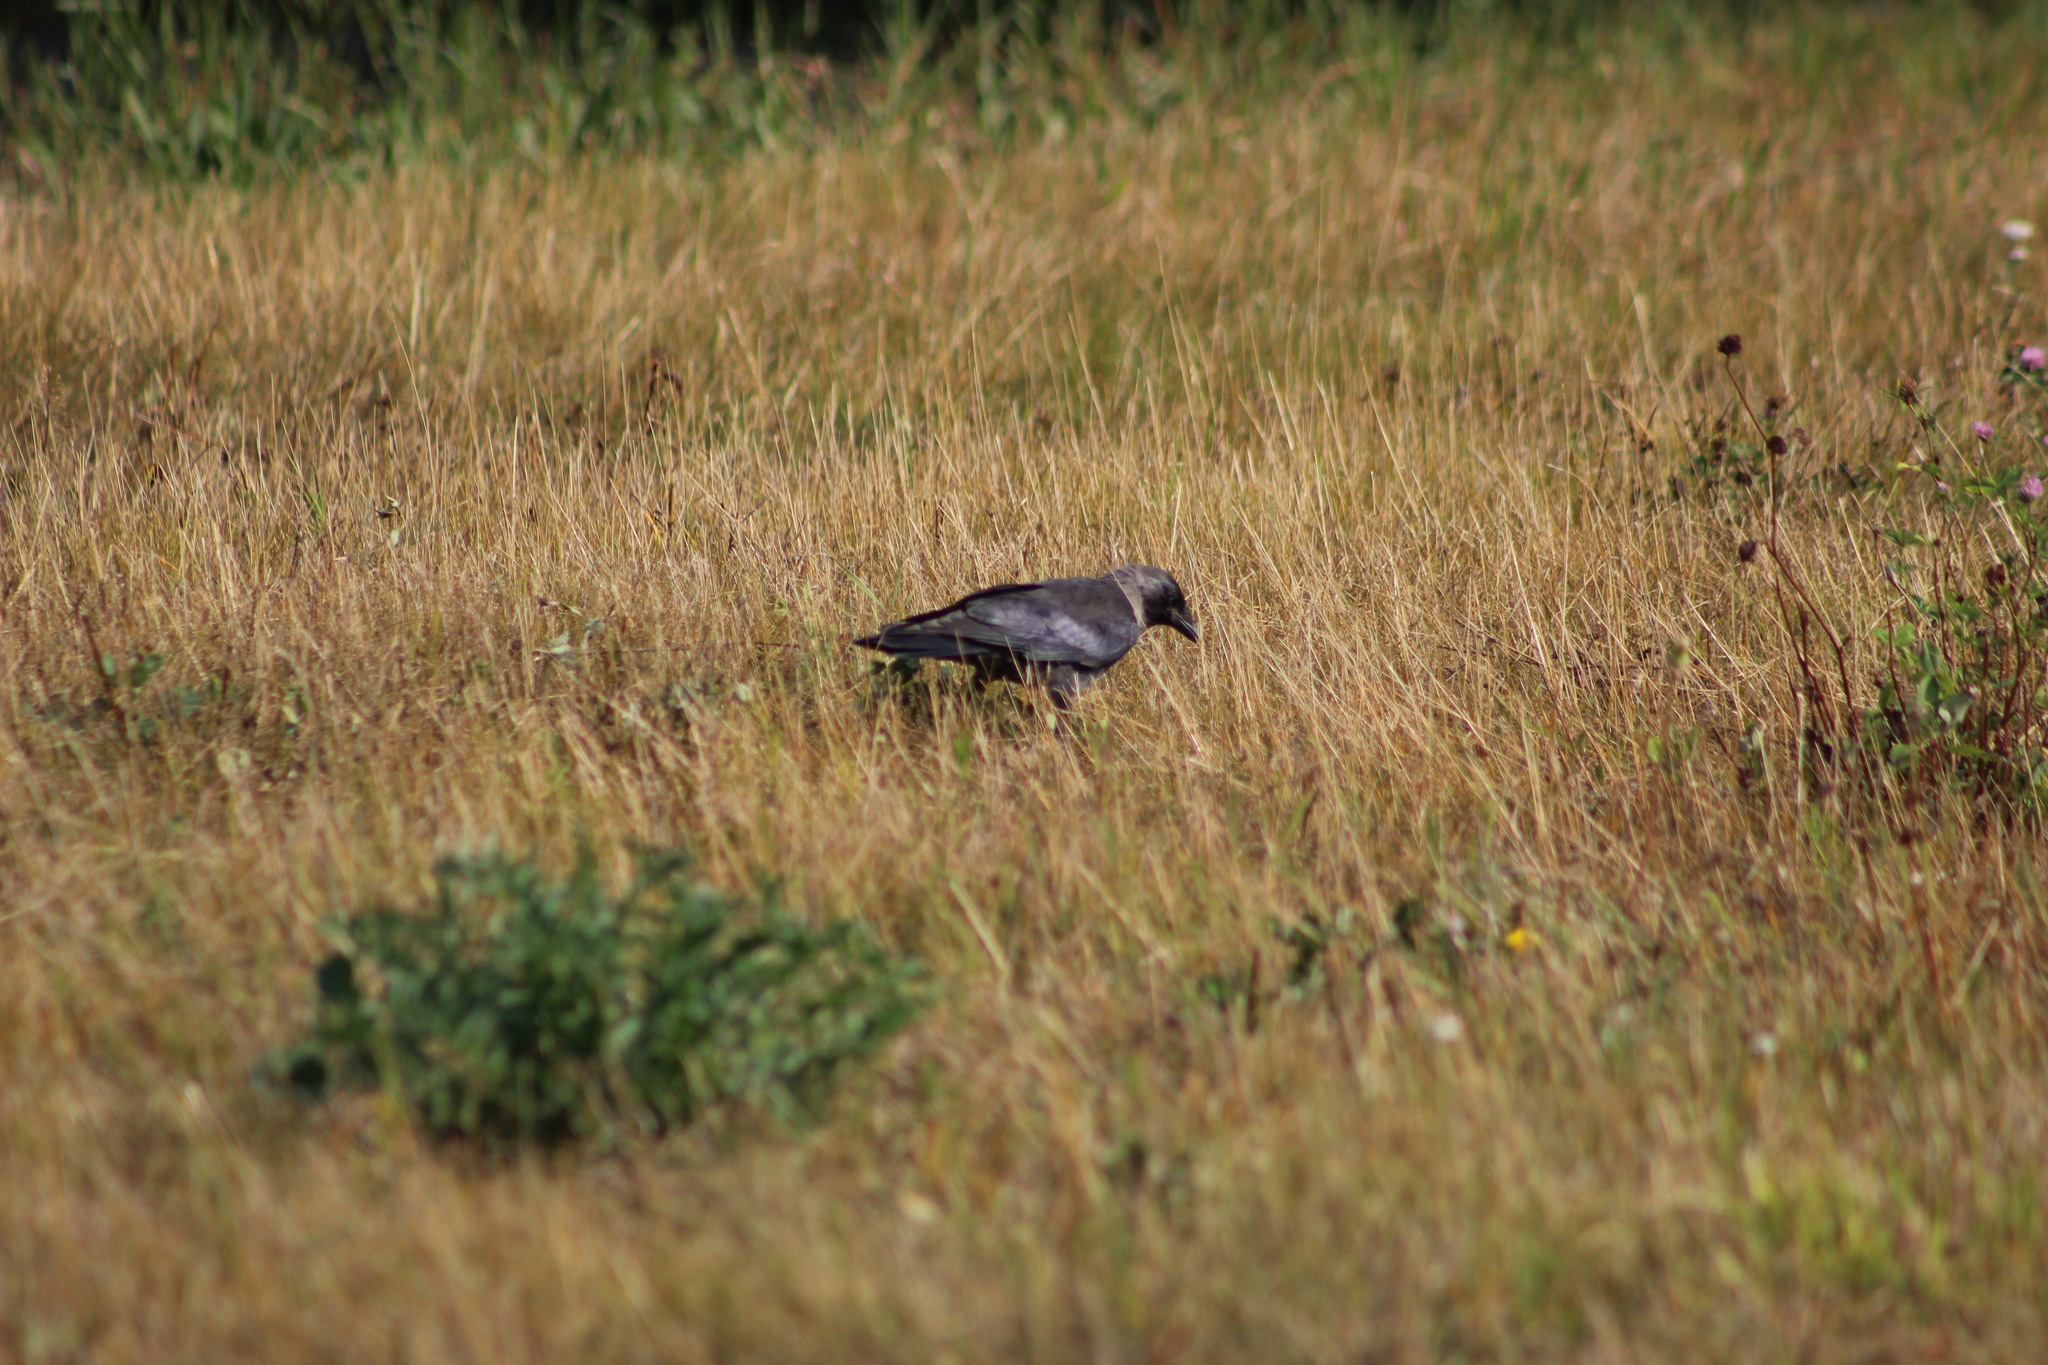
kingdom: Animalia
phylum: Chordata
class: Aves
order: Passeriformes
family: Corvidae
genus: Coloeus
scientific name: Coloeus monedula
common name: Western jackdaw
